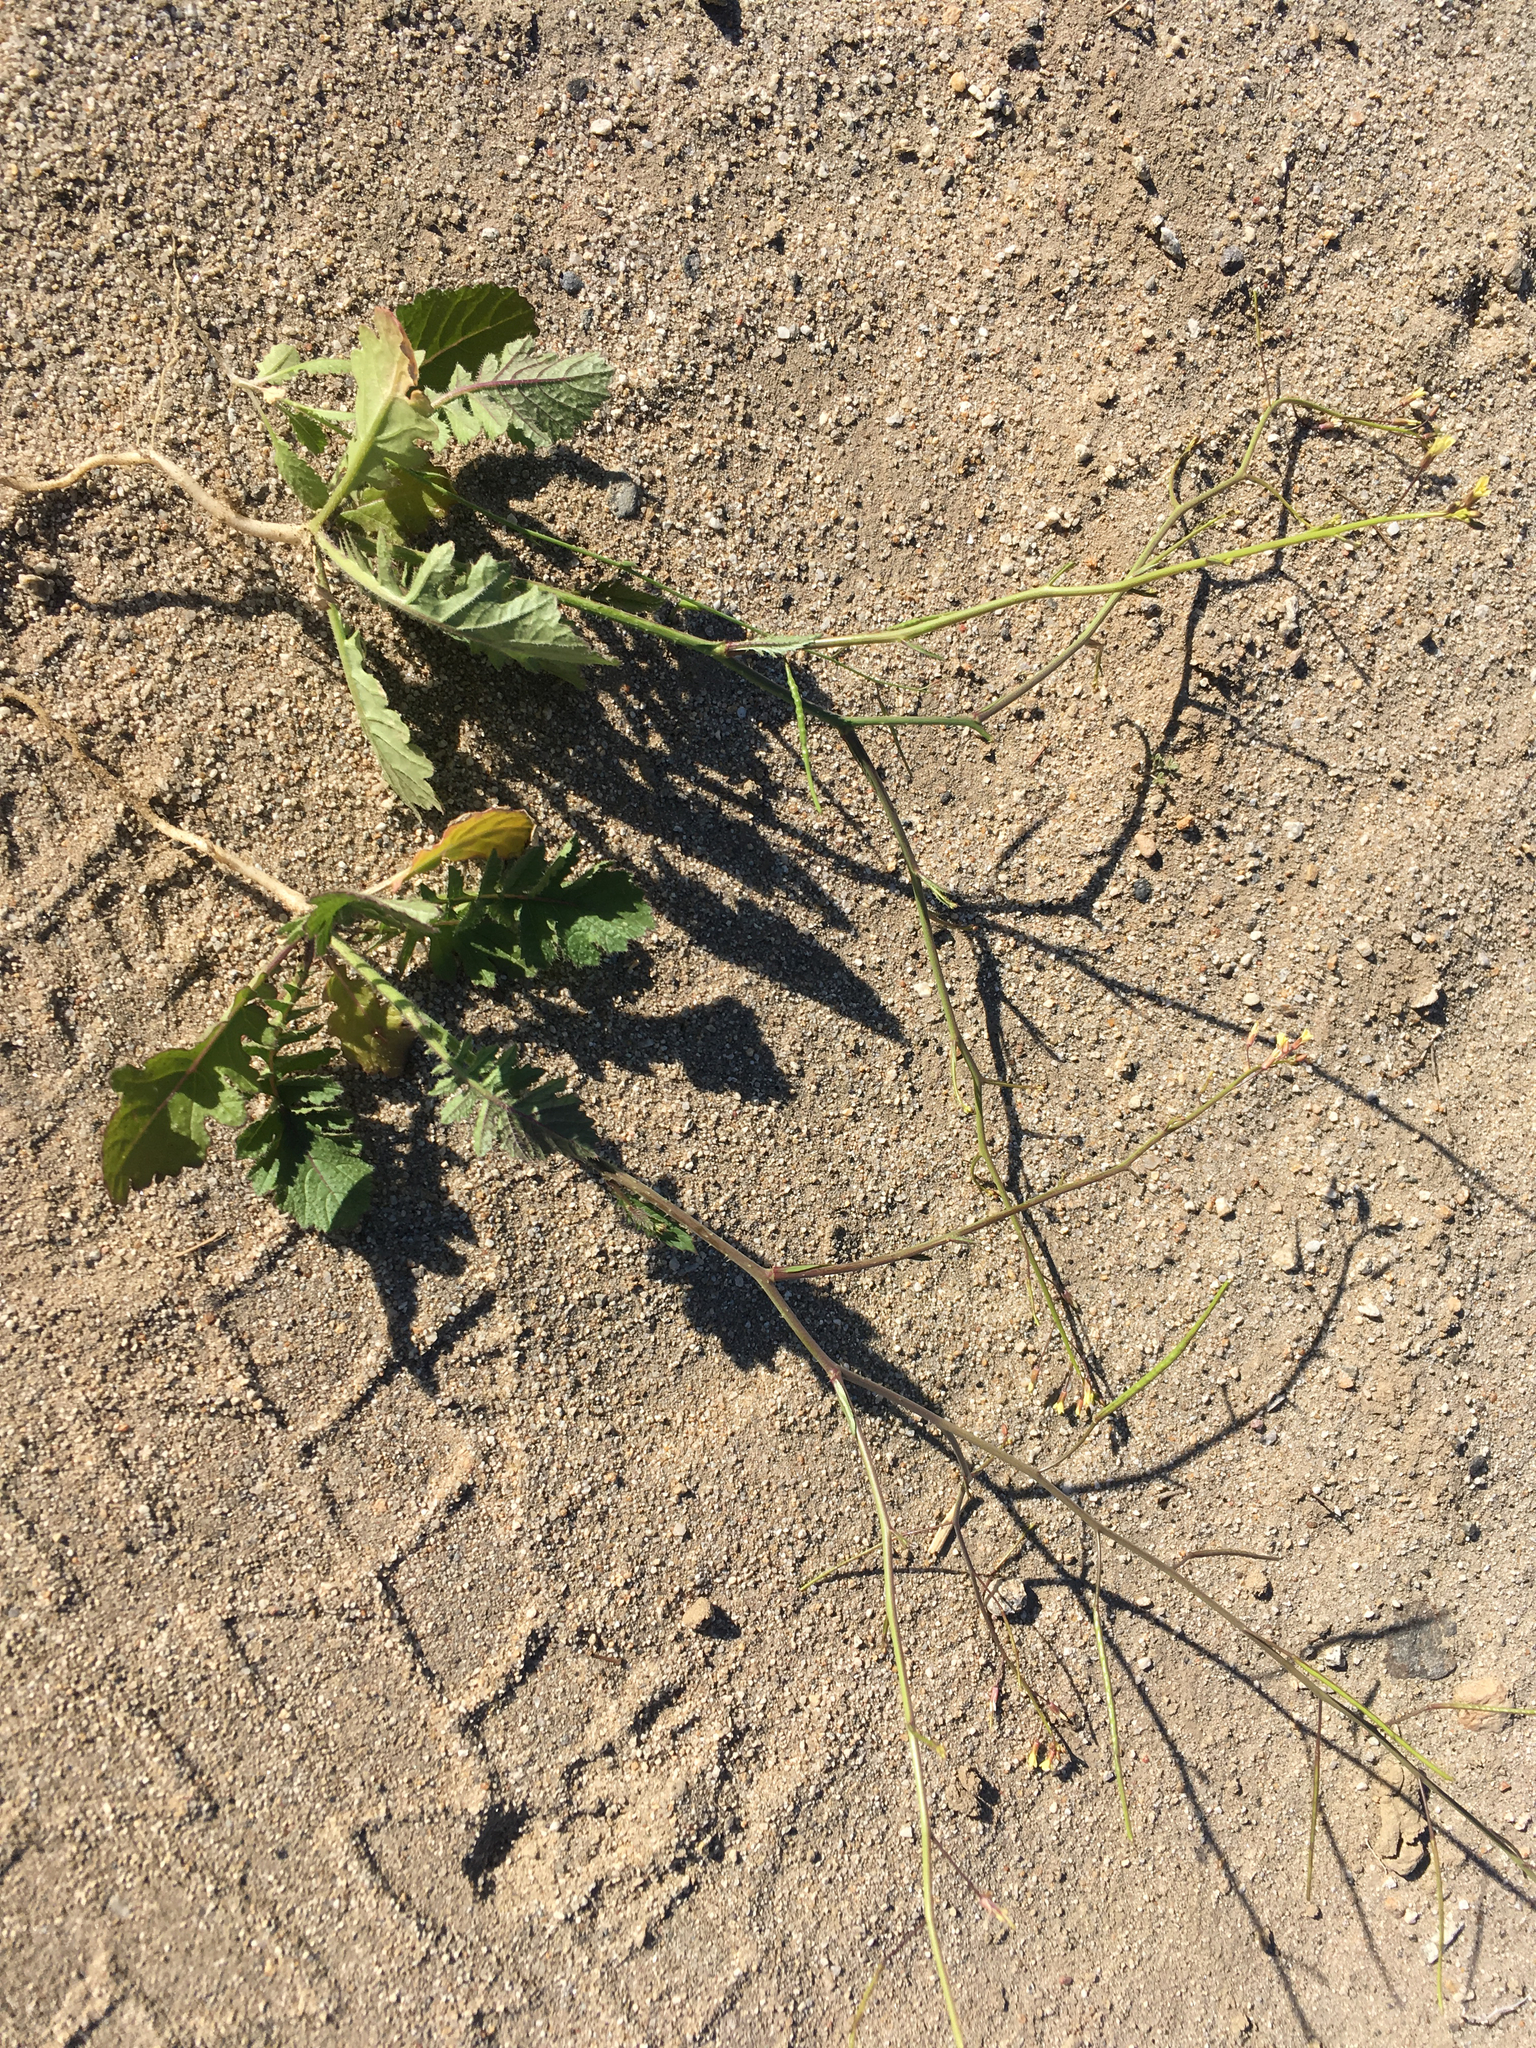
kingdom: Plantae
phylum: Tracheophyta
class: Magnoliopsida
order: Brassicales
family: Brassicaceae
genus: Brassica
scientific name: Brassica tournefortii
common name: Pale cabbage
